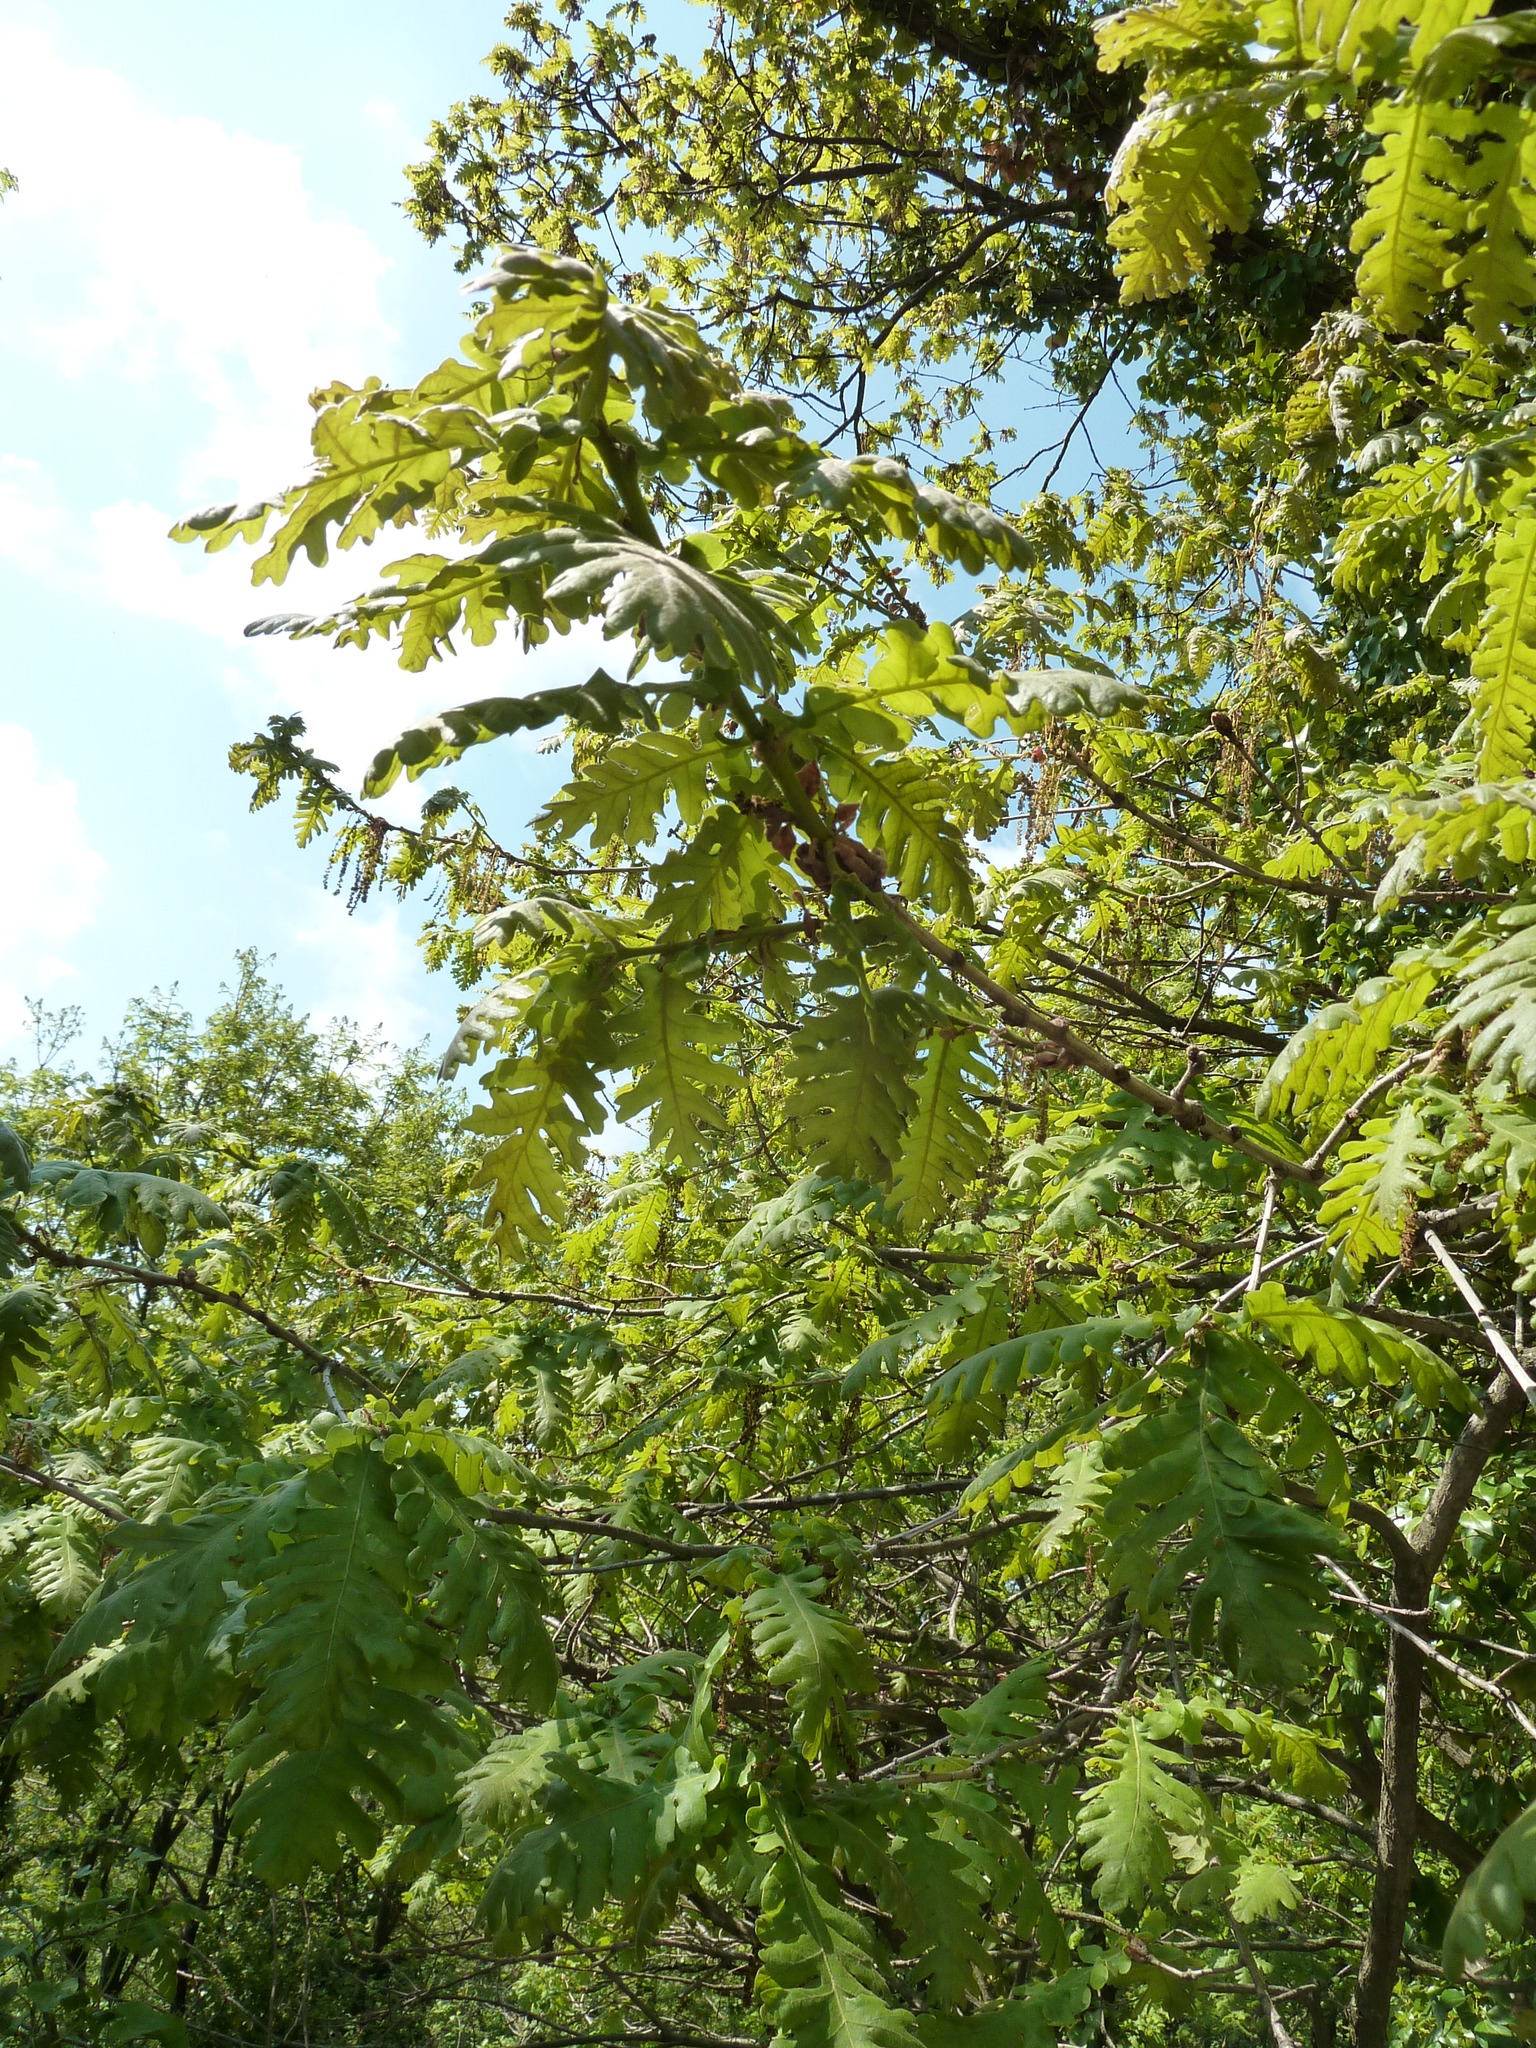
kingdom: Plantae
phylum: Tracheophyta
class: Magnoliopsida
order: Fagales
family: Fagaceae
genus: Quercus
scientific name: Quercus conferta
